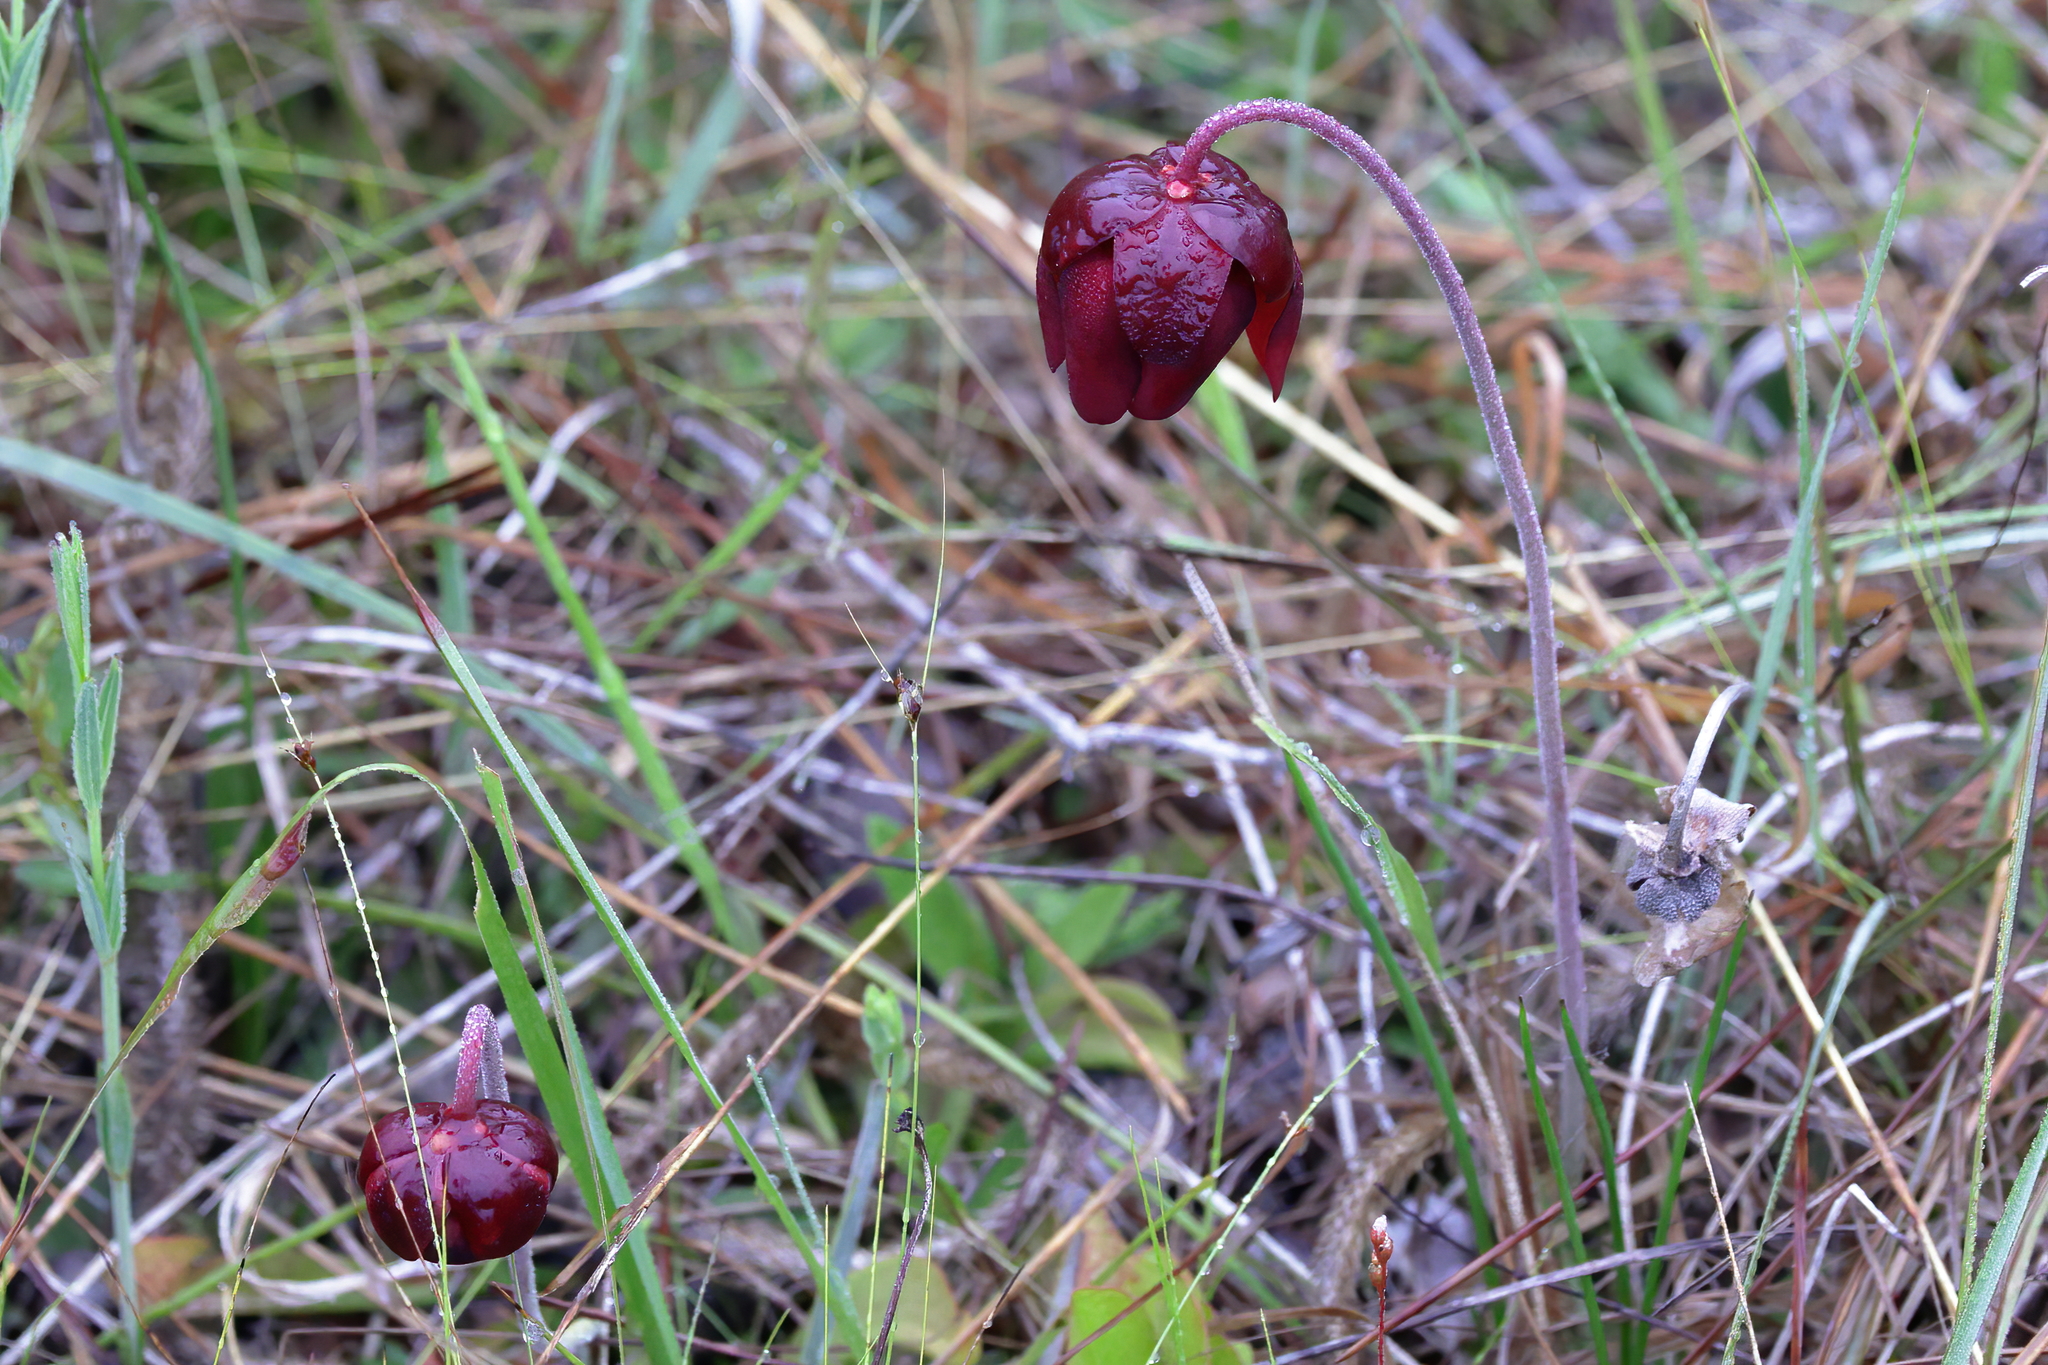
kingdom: Plantae
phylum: Tracheophyta
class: Magnoliopsida
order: Ericales
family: Sarraceniaceae
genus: Sarracenia
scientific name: Sarracenia psittacina
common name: Parrot pitcherplant
